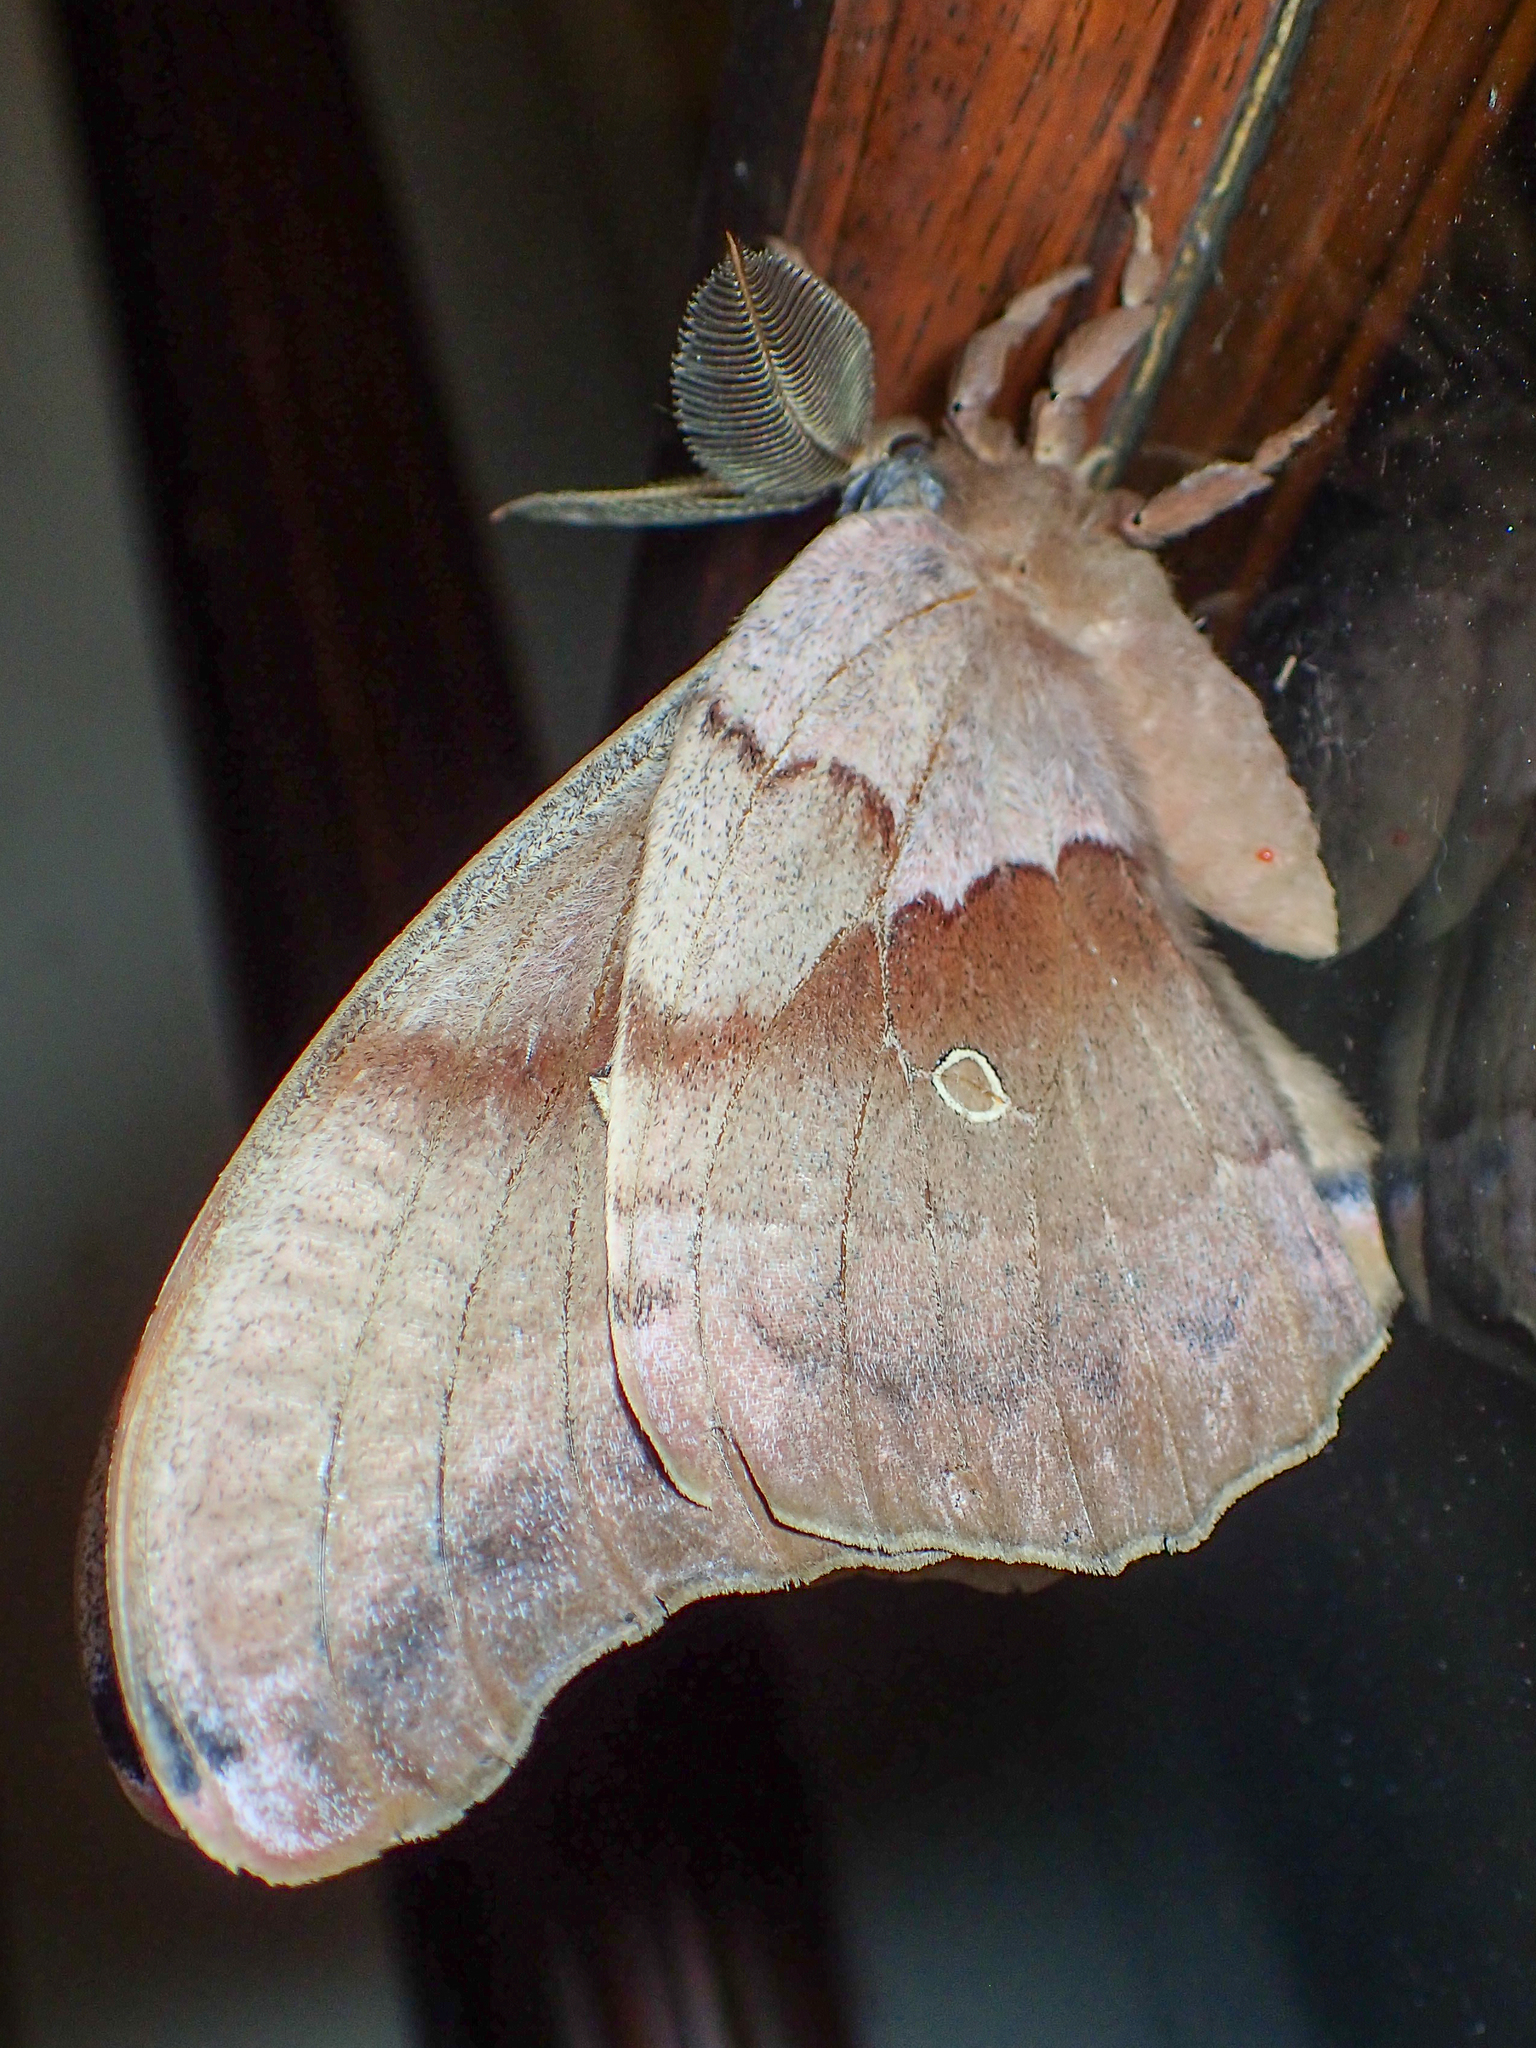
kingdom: Animalia
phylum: Arthropoda
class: Insecta
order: Lepidoptera
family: Saturniidae
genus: Antheraea
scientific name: Antheraea polyphemus
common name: Polyphemus moth
